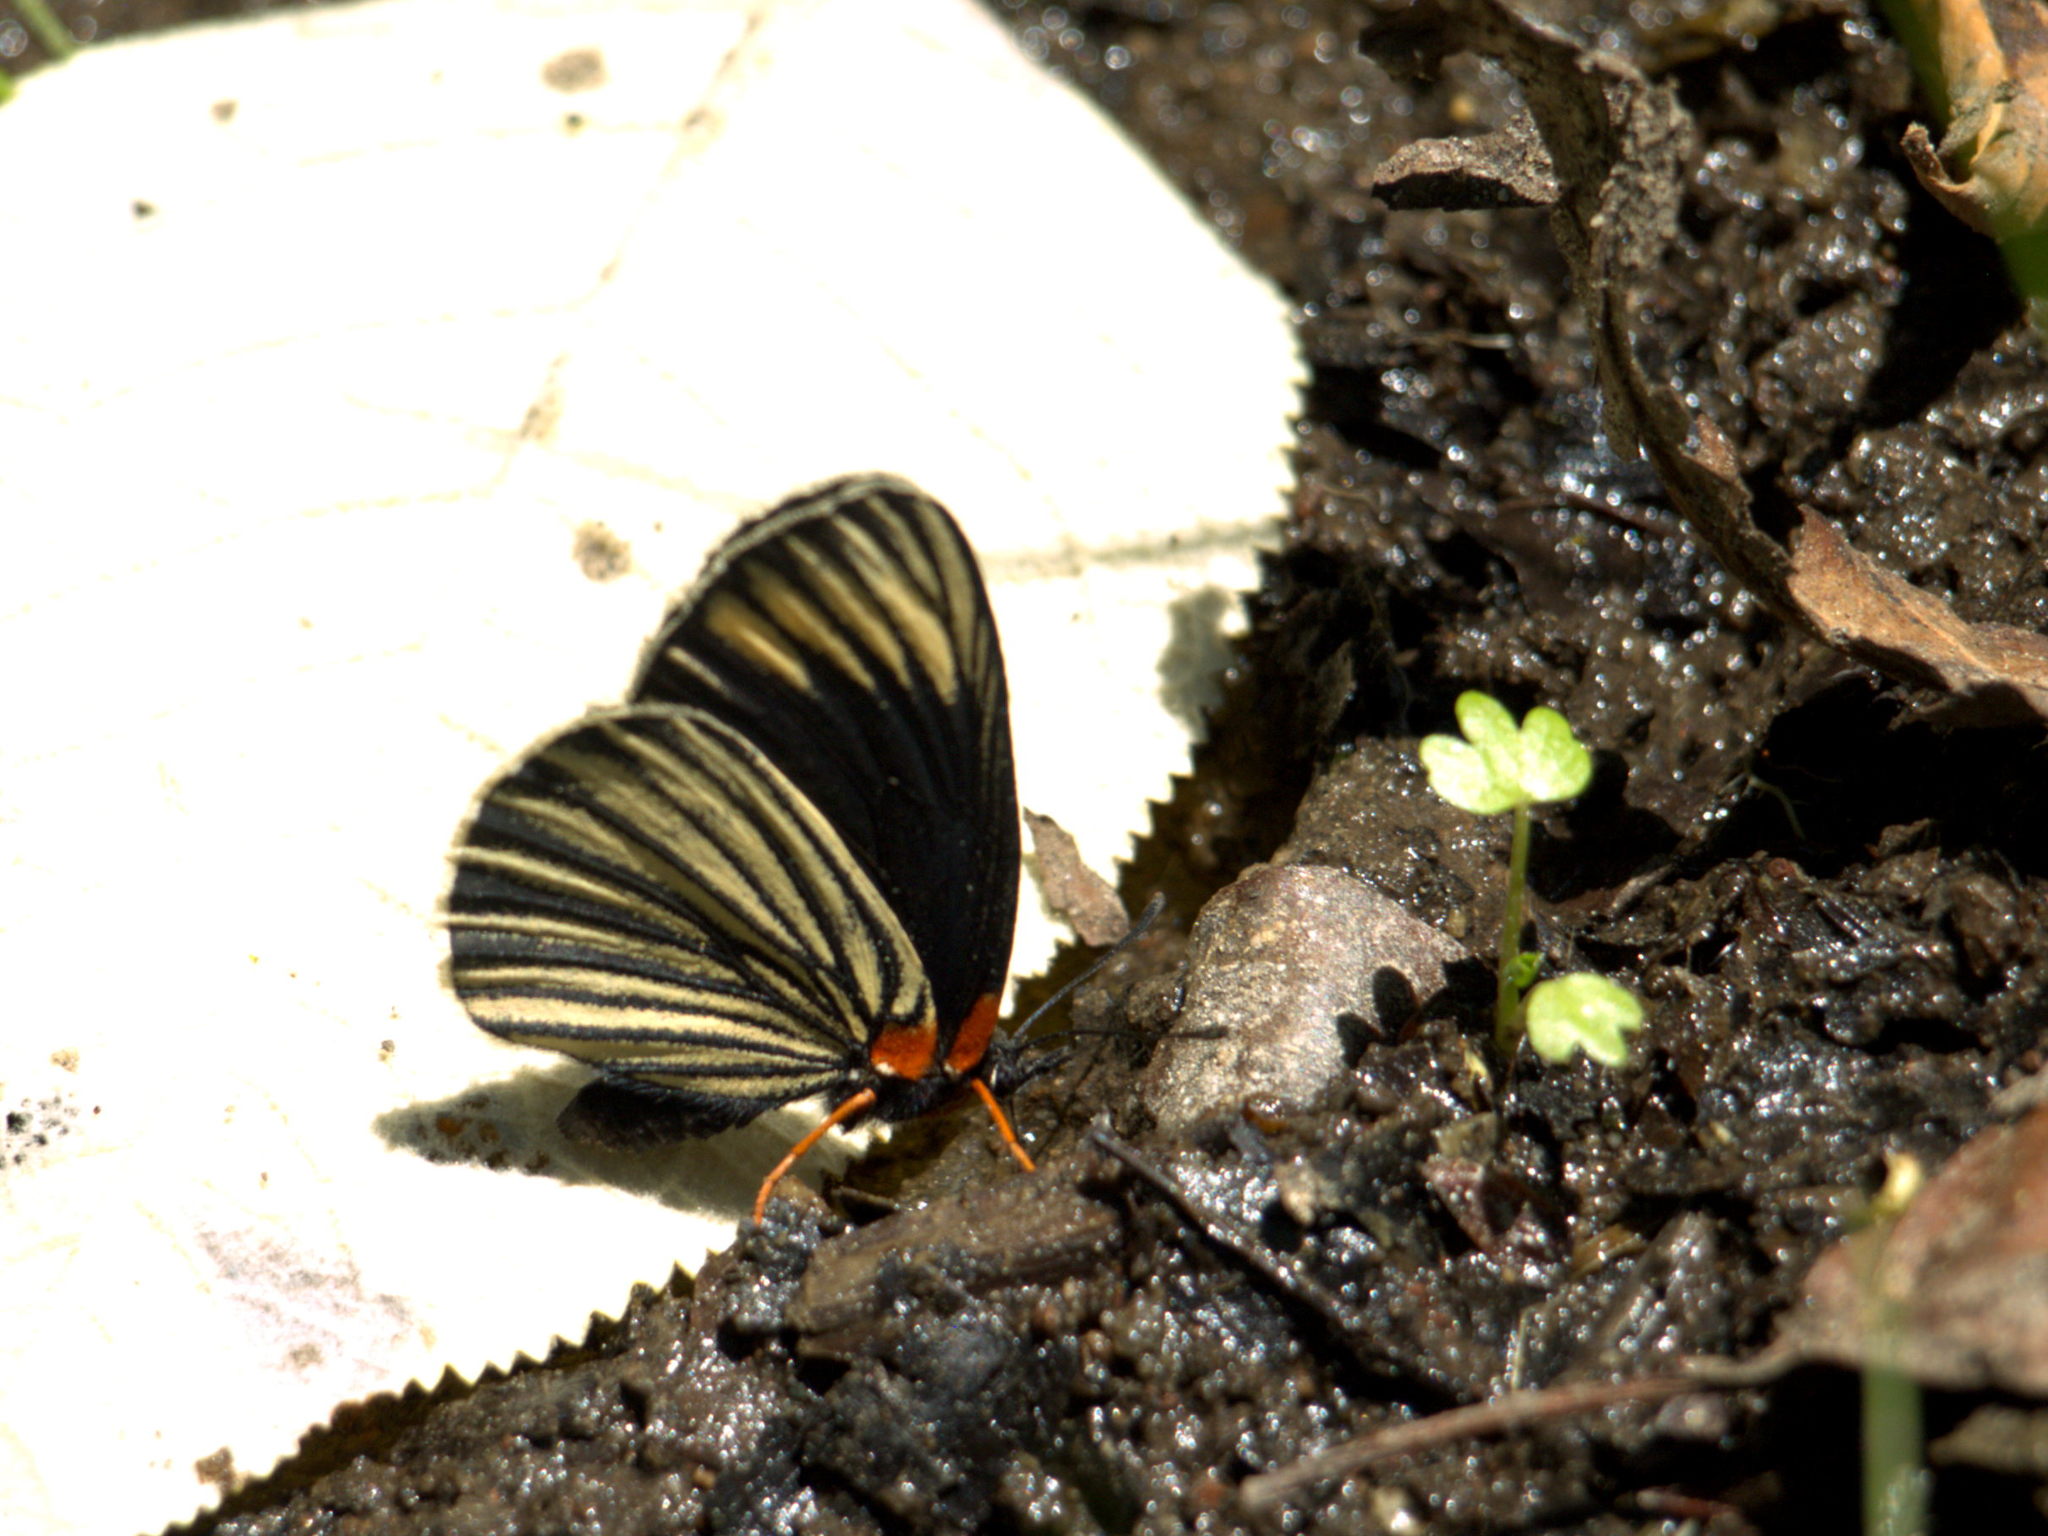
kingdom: Animalia
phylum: Arthropoda
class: Insecta
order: Lepidoptera
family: Nymphalidae
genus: Chlosyne
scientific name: Chlosyne ehrenbergii
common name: White-rayed patch
